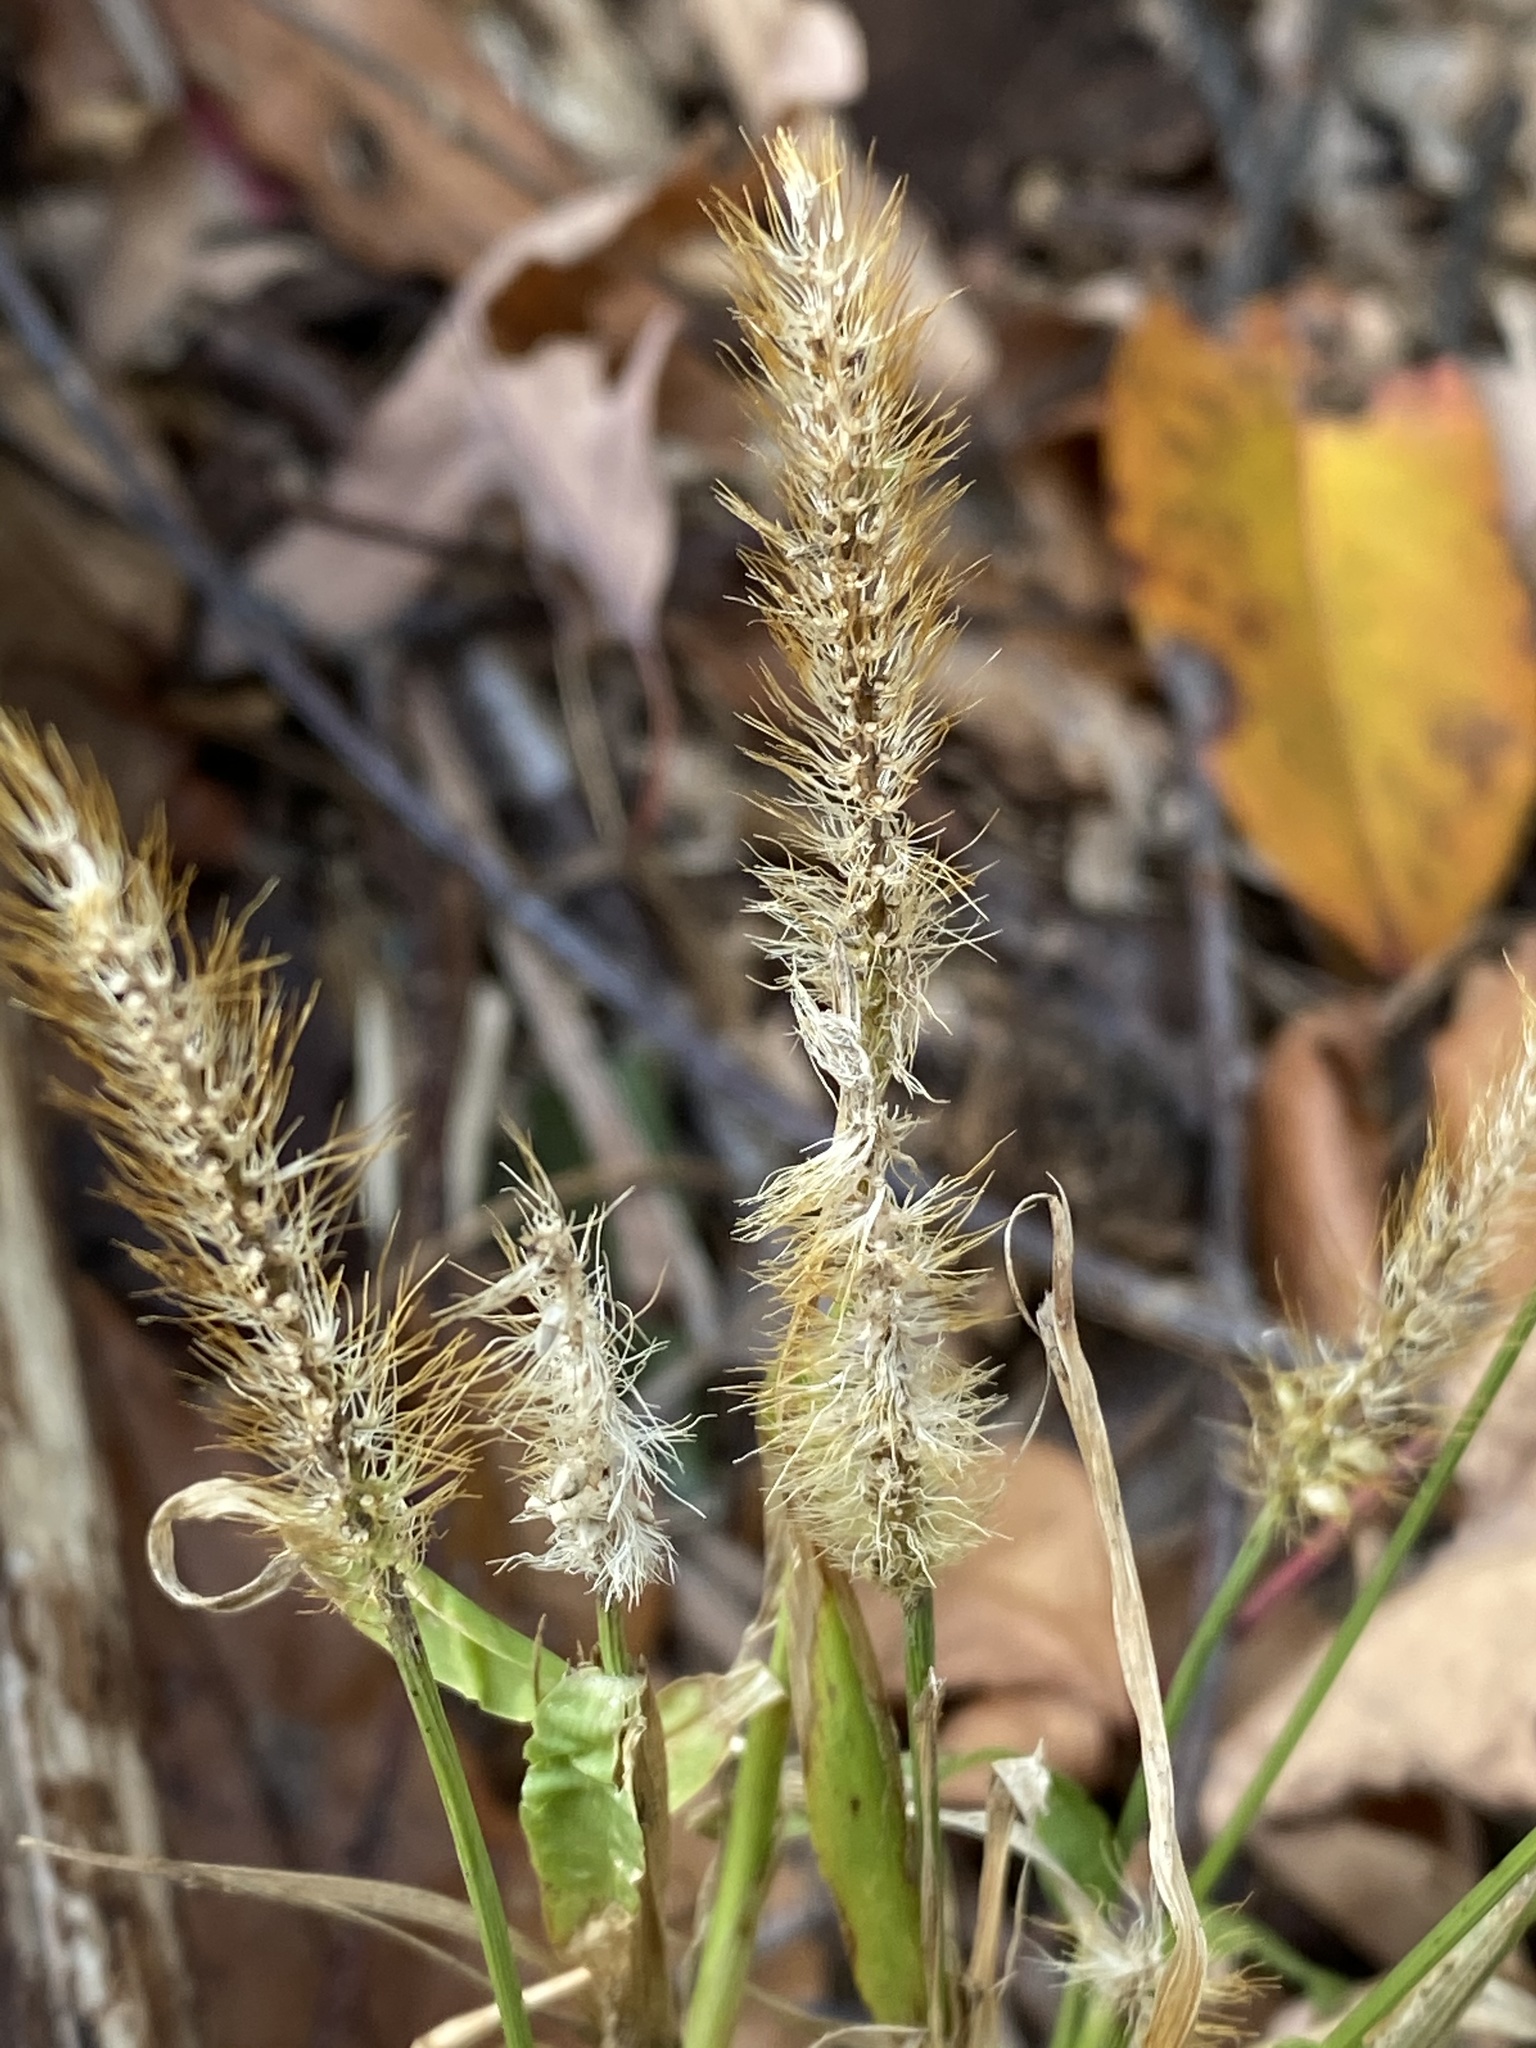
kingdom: Plantae
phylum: Tracheophyta
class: Liliopsida
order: Poales
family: Poaceae
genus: Setaria
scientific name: Setaria pumila
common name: Yellow bristle-grass
